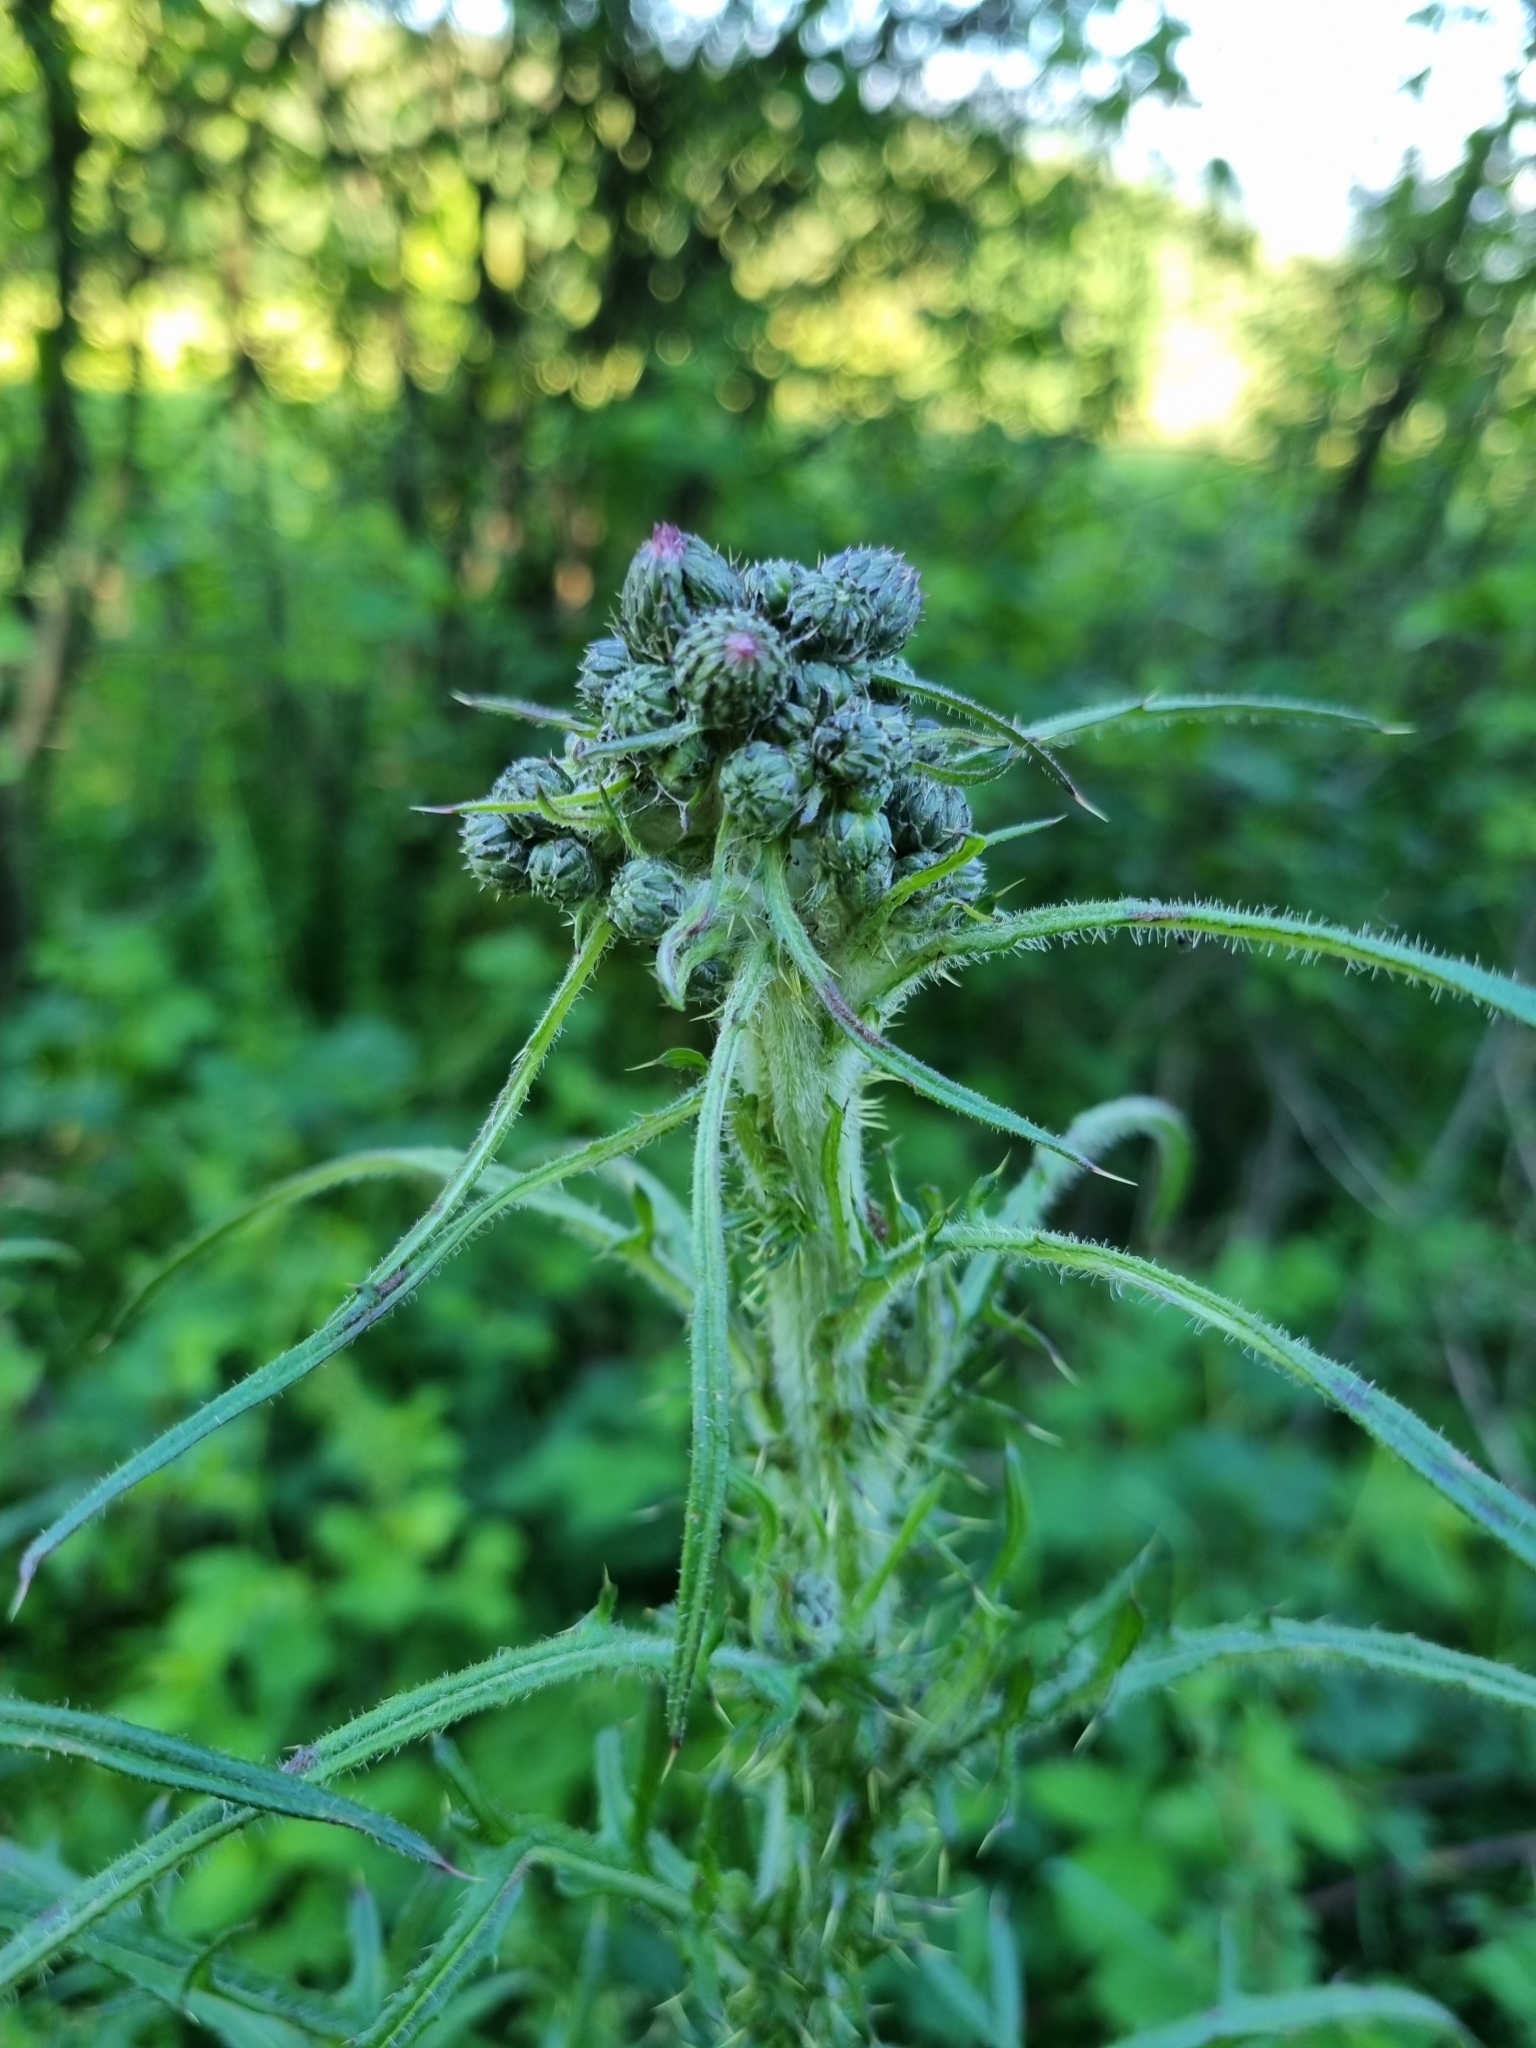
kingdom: Plantae
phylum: Tracheophyta
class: Magnoliopsida
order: Asterales
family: Asteraceae
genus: Cirsium
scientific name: Cirsium palustre
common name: Marsh thistle
